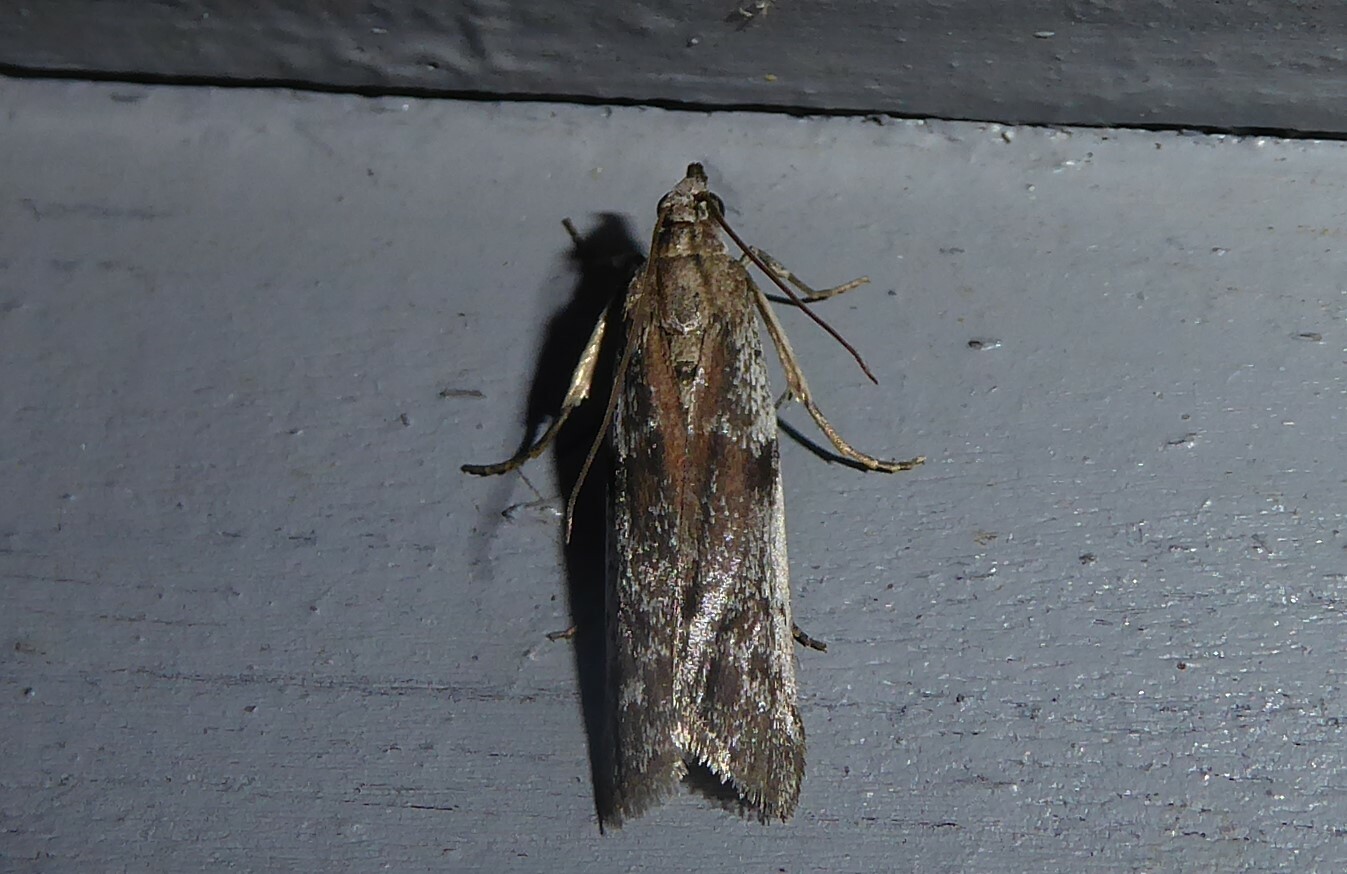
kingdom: Animalia
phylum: Arthropoda
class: Insecta
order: Lepidoptera
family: Pyralidae
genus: Patagoniodes
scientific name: Patagoniodes farinaria
